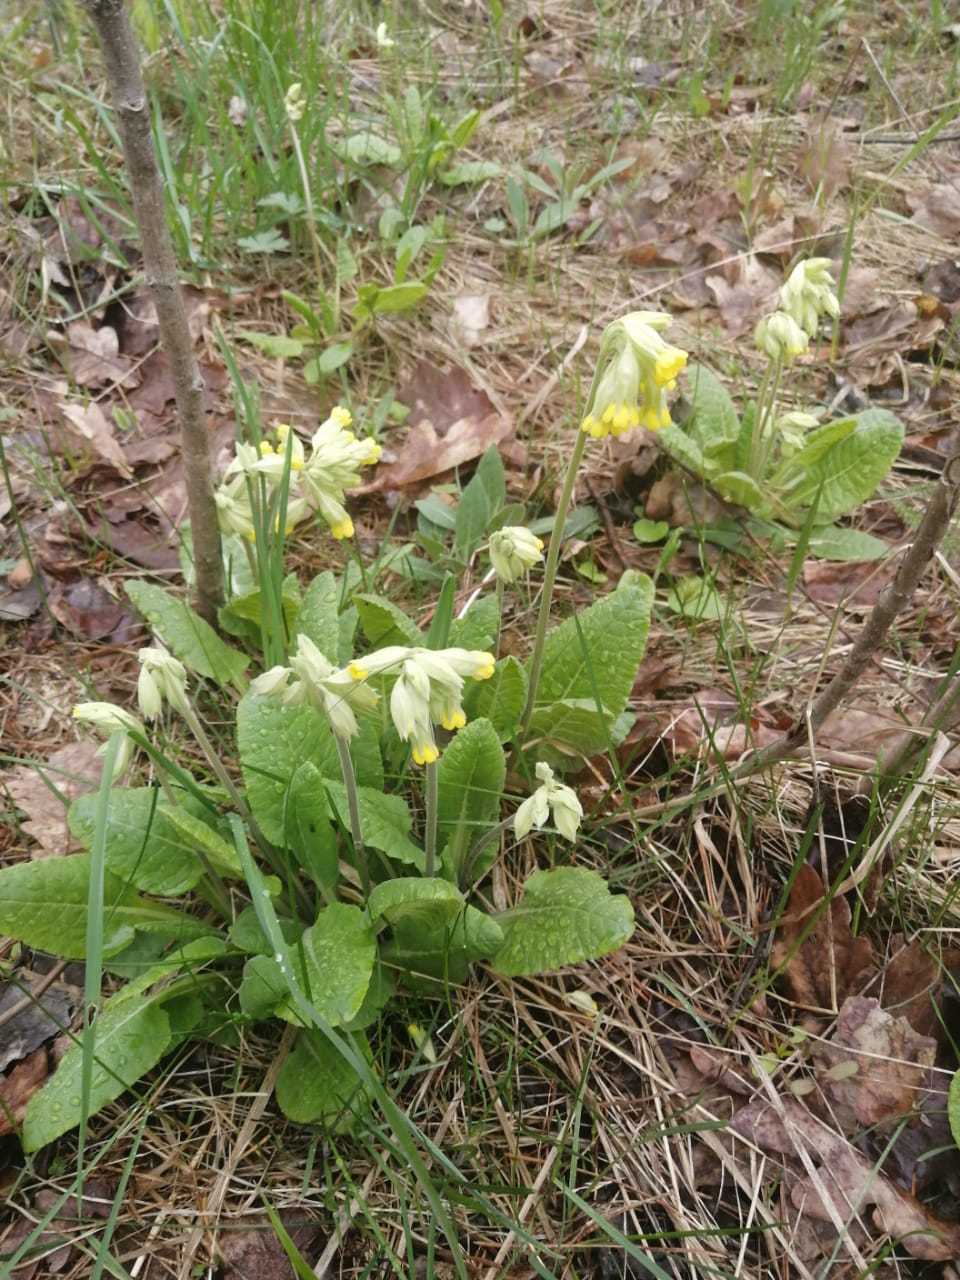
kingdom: Plantae
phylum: Tracheophyta
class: Magnoliopsida
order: Ericales
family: Primulaceae
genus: Primula
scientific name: Primula veris
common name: Cowslip
